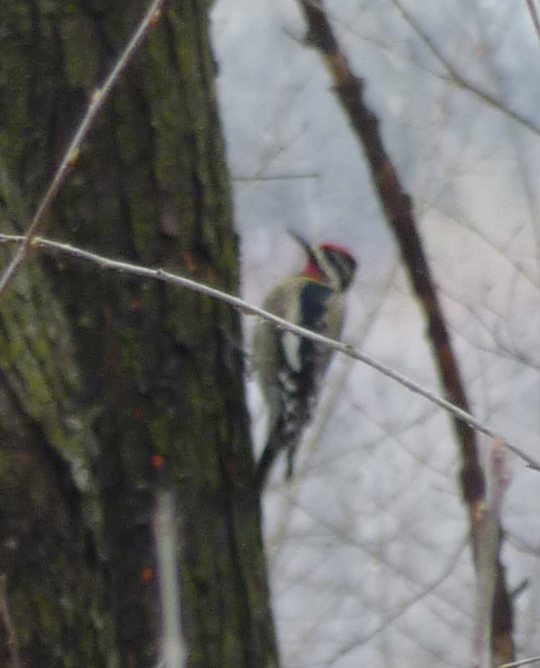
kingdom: Animalia
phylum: Chordata
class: Aves
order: Piciformes
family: Picidae
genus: Sphyrapicus
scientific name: Sphyrapicus varius
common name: Yellow-bellied sapsucker
